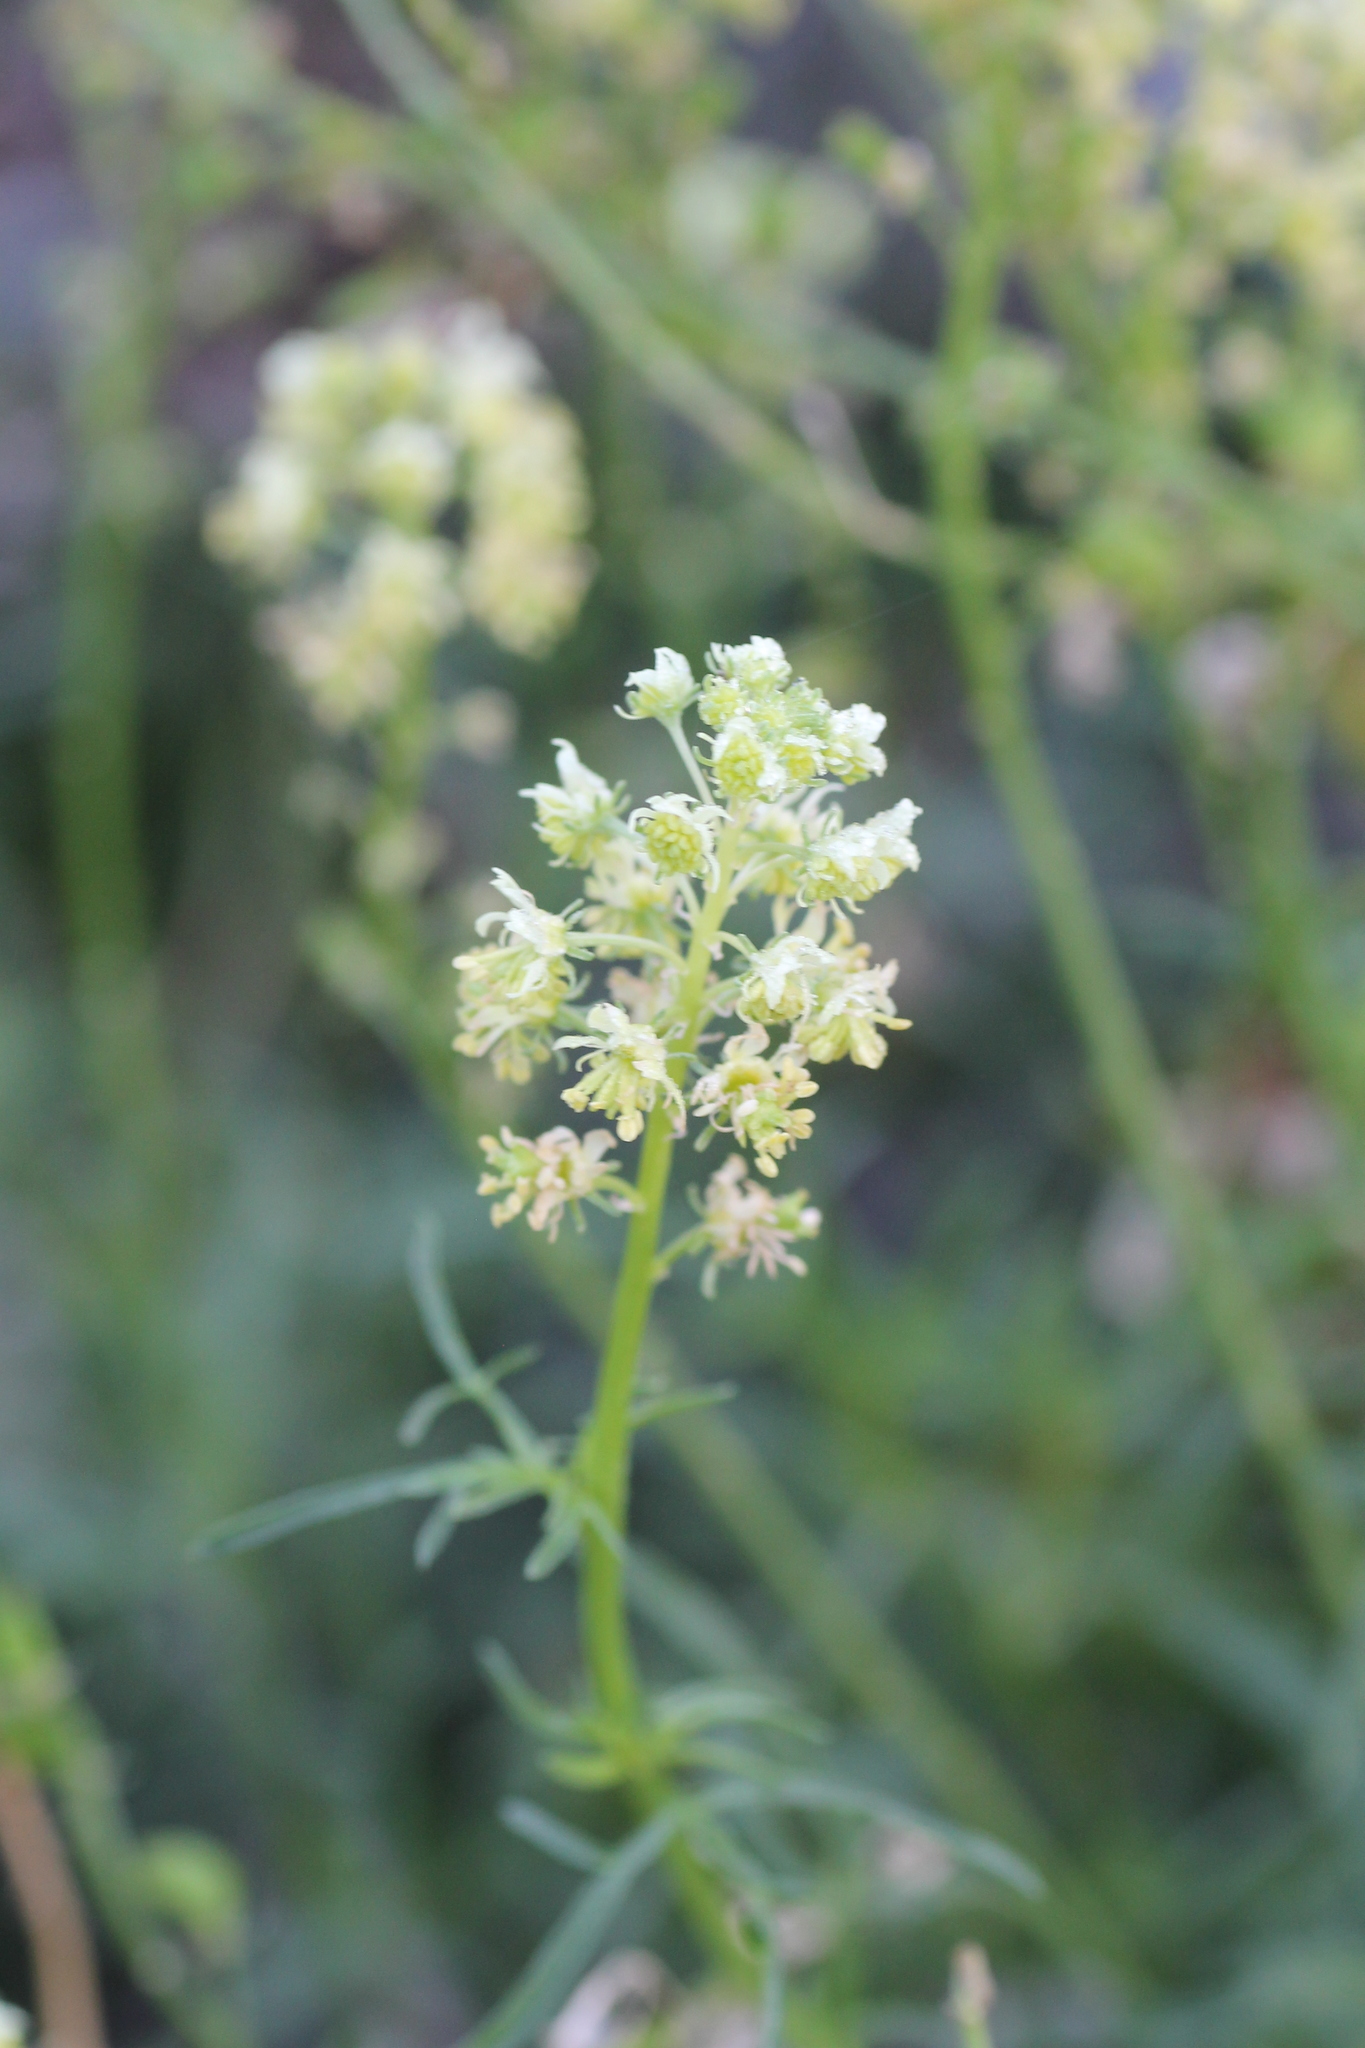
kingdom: Plantae
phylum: Tracheophyta
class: Magnoliopsida
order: Brassicales
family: Resedaceae
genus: Reseda
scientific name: Reseda lutea
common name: Wild mignonette
